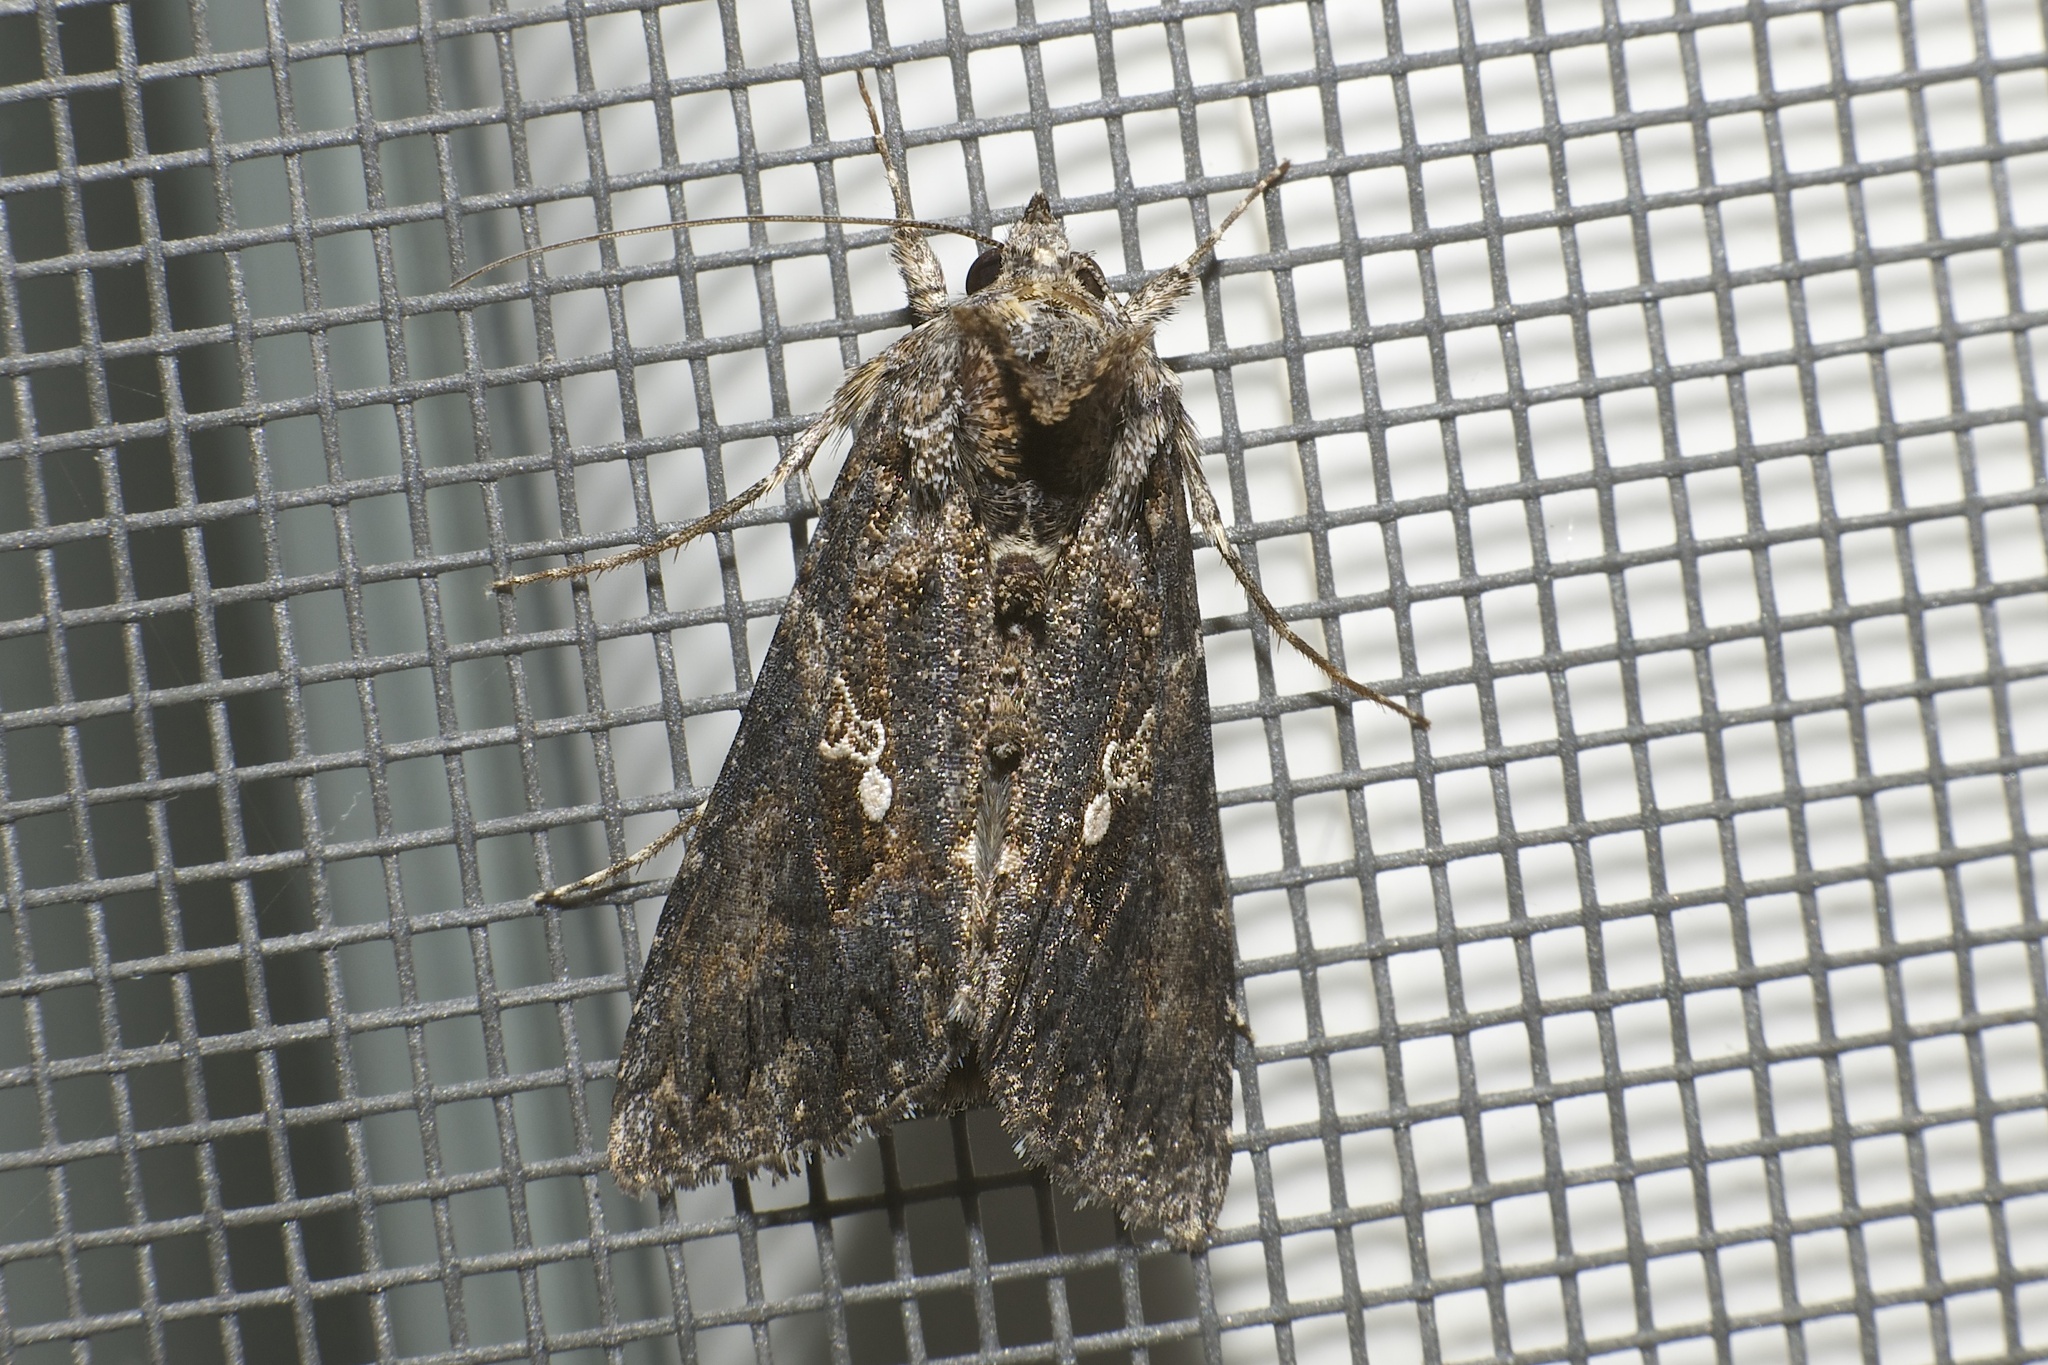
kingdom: Animalia
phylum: Arthropoda
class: Insecta
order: Lepidoptera
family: Noctuidae
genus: Trichoplusia
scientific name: Trichoplusia ni
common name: Ni moth
